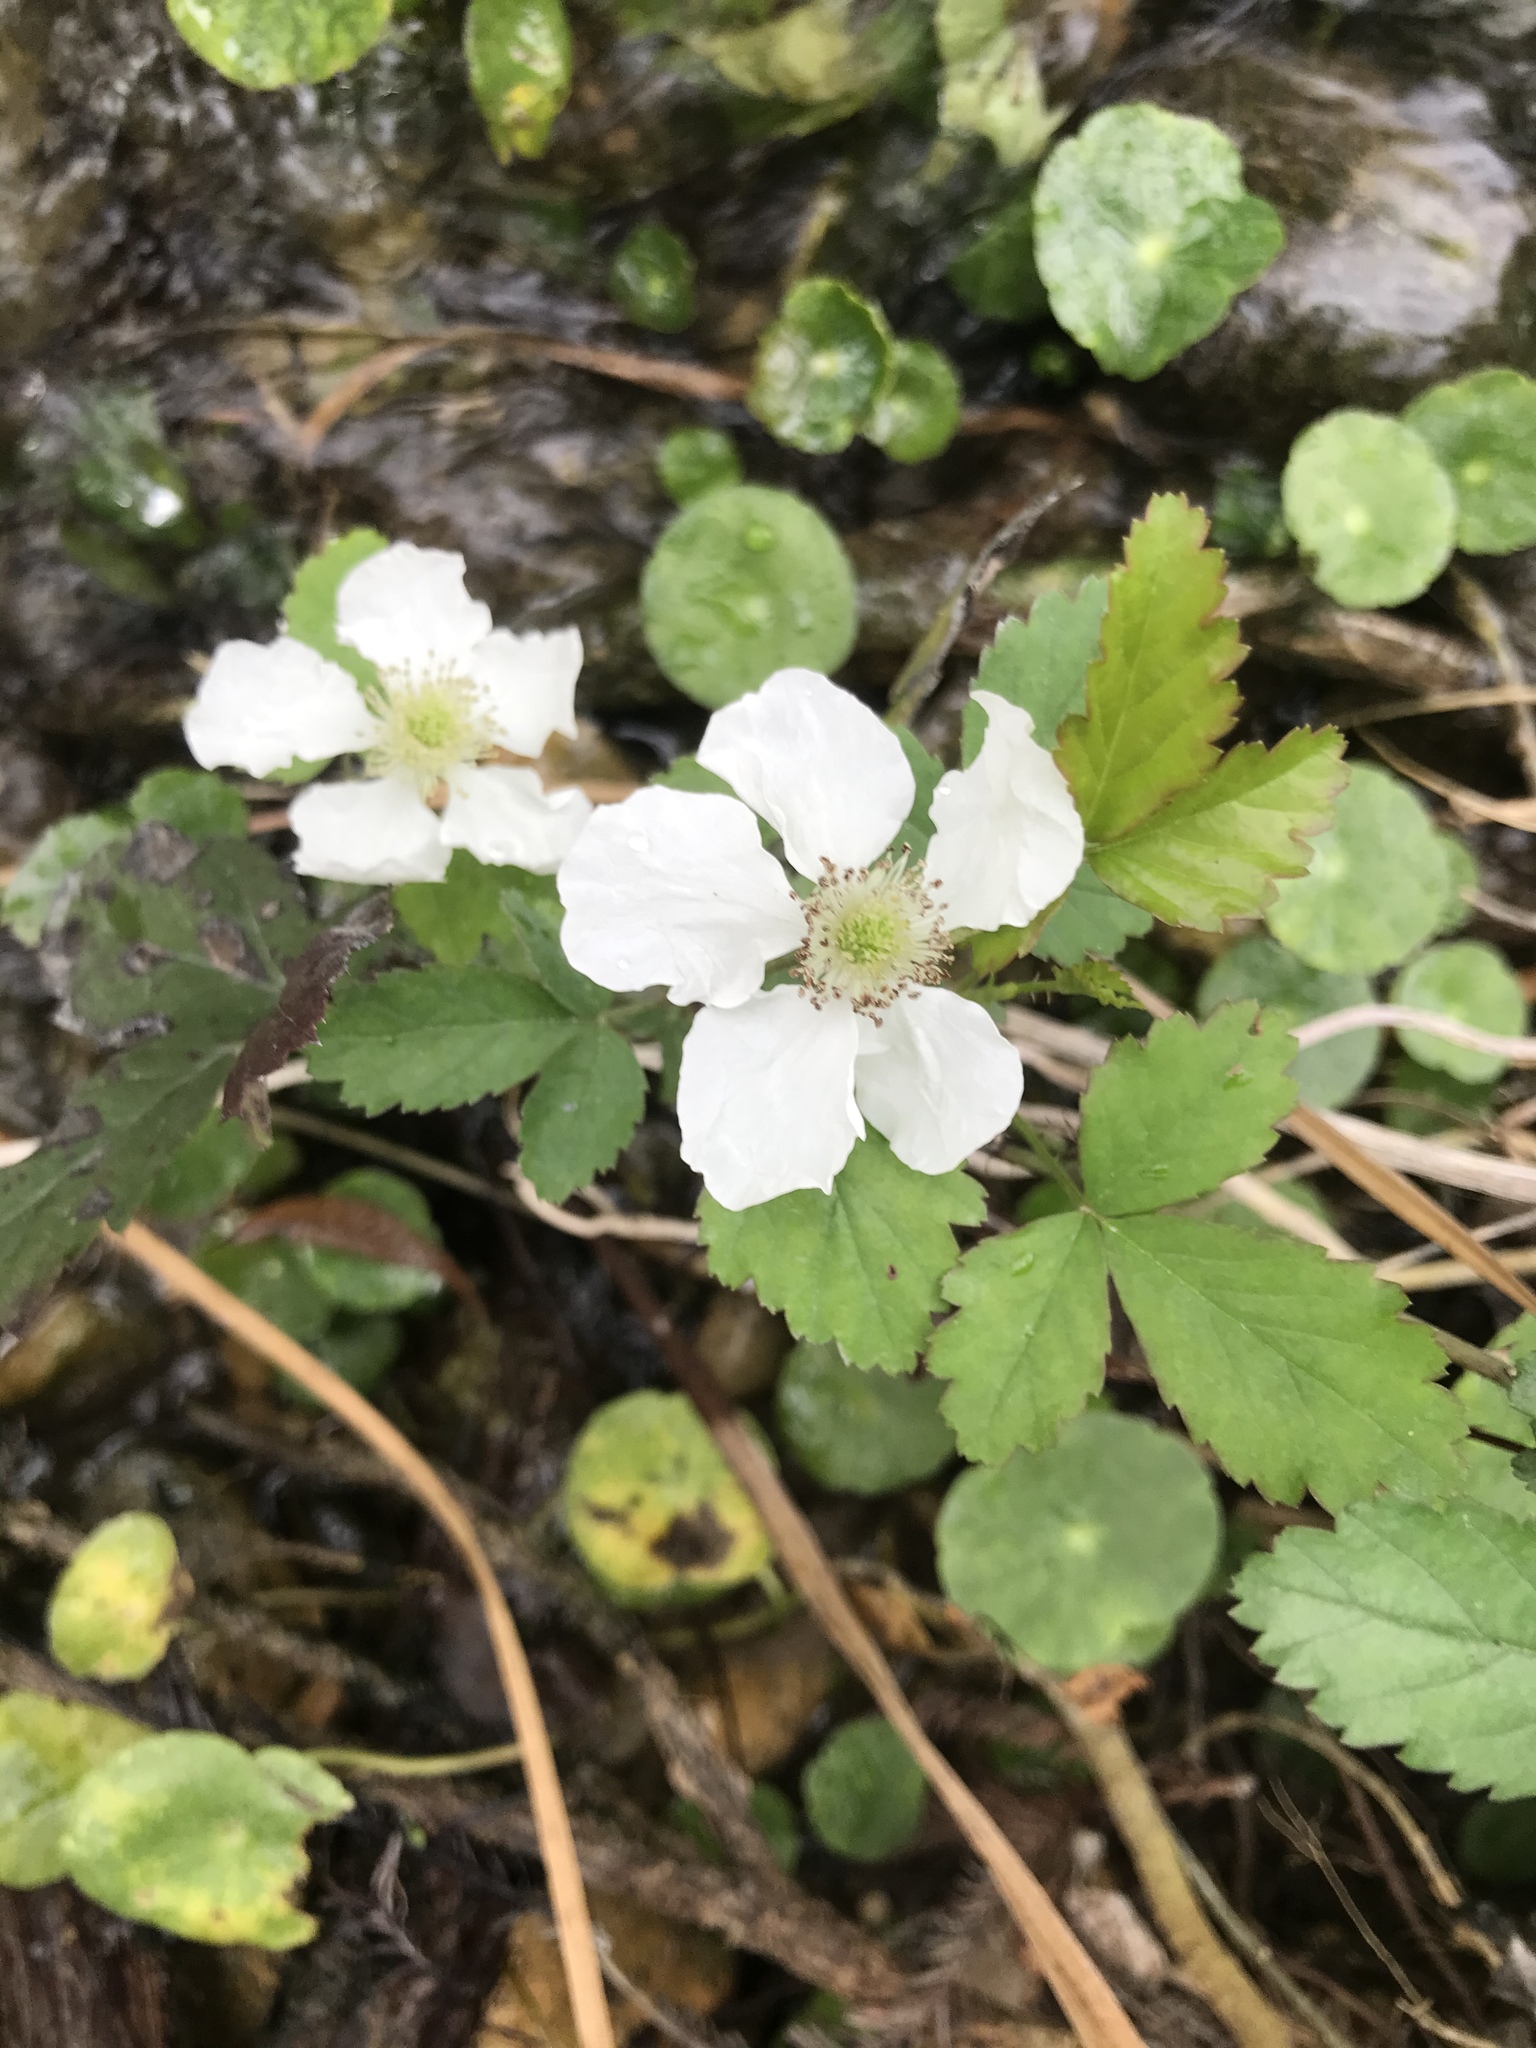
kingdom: Plantae
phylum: Tracheophyta
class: Magnoliopsida
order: Rosales
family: Rosaceae
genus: Rubus
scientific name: Rubus trivialis
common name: Southern dewberry
